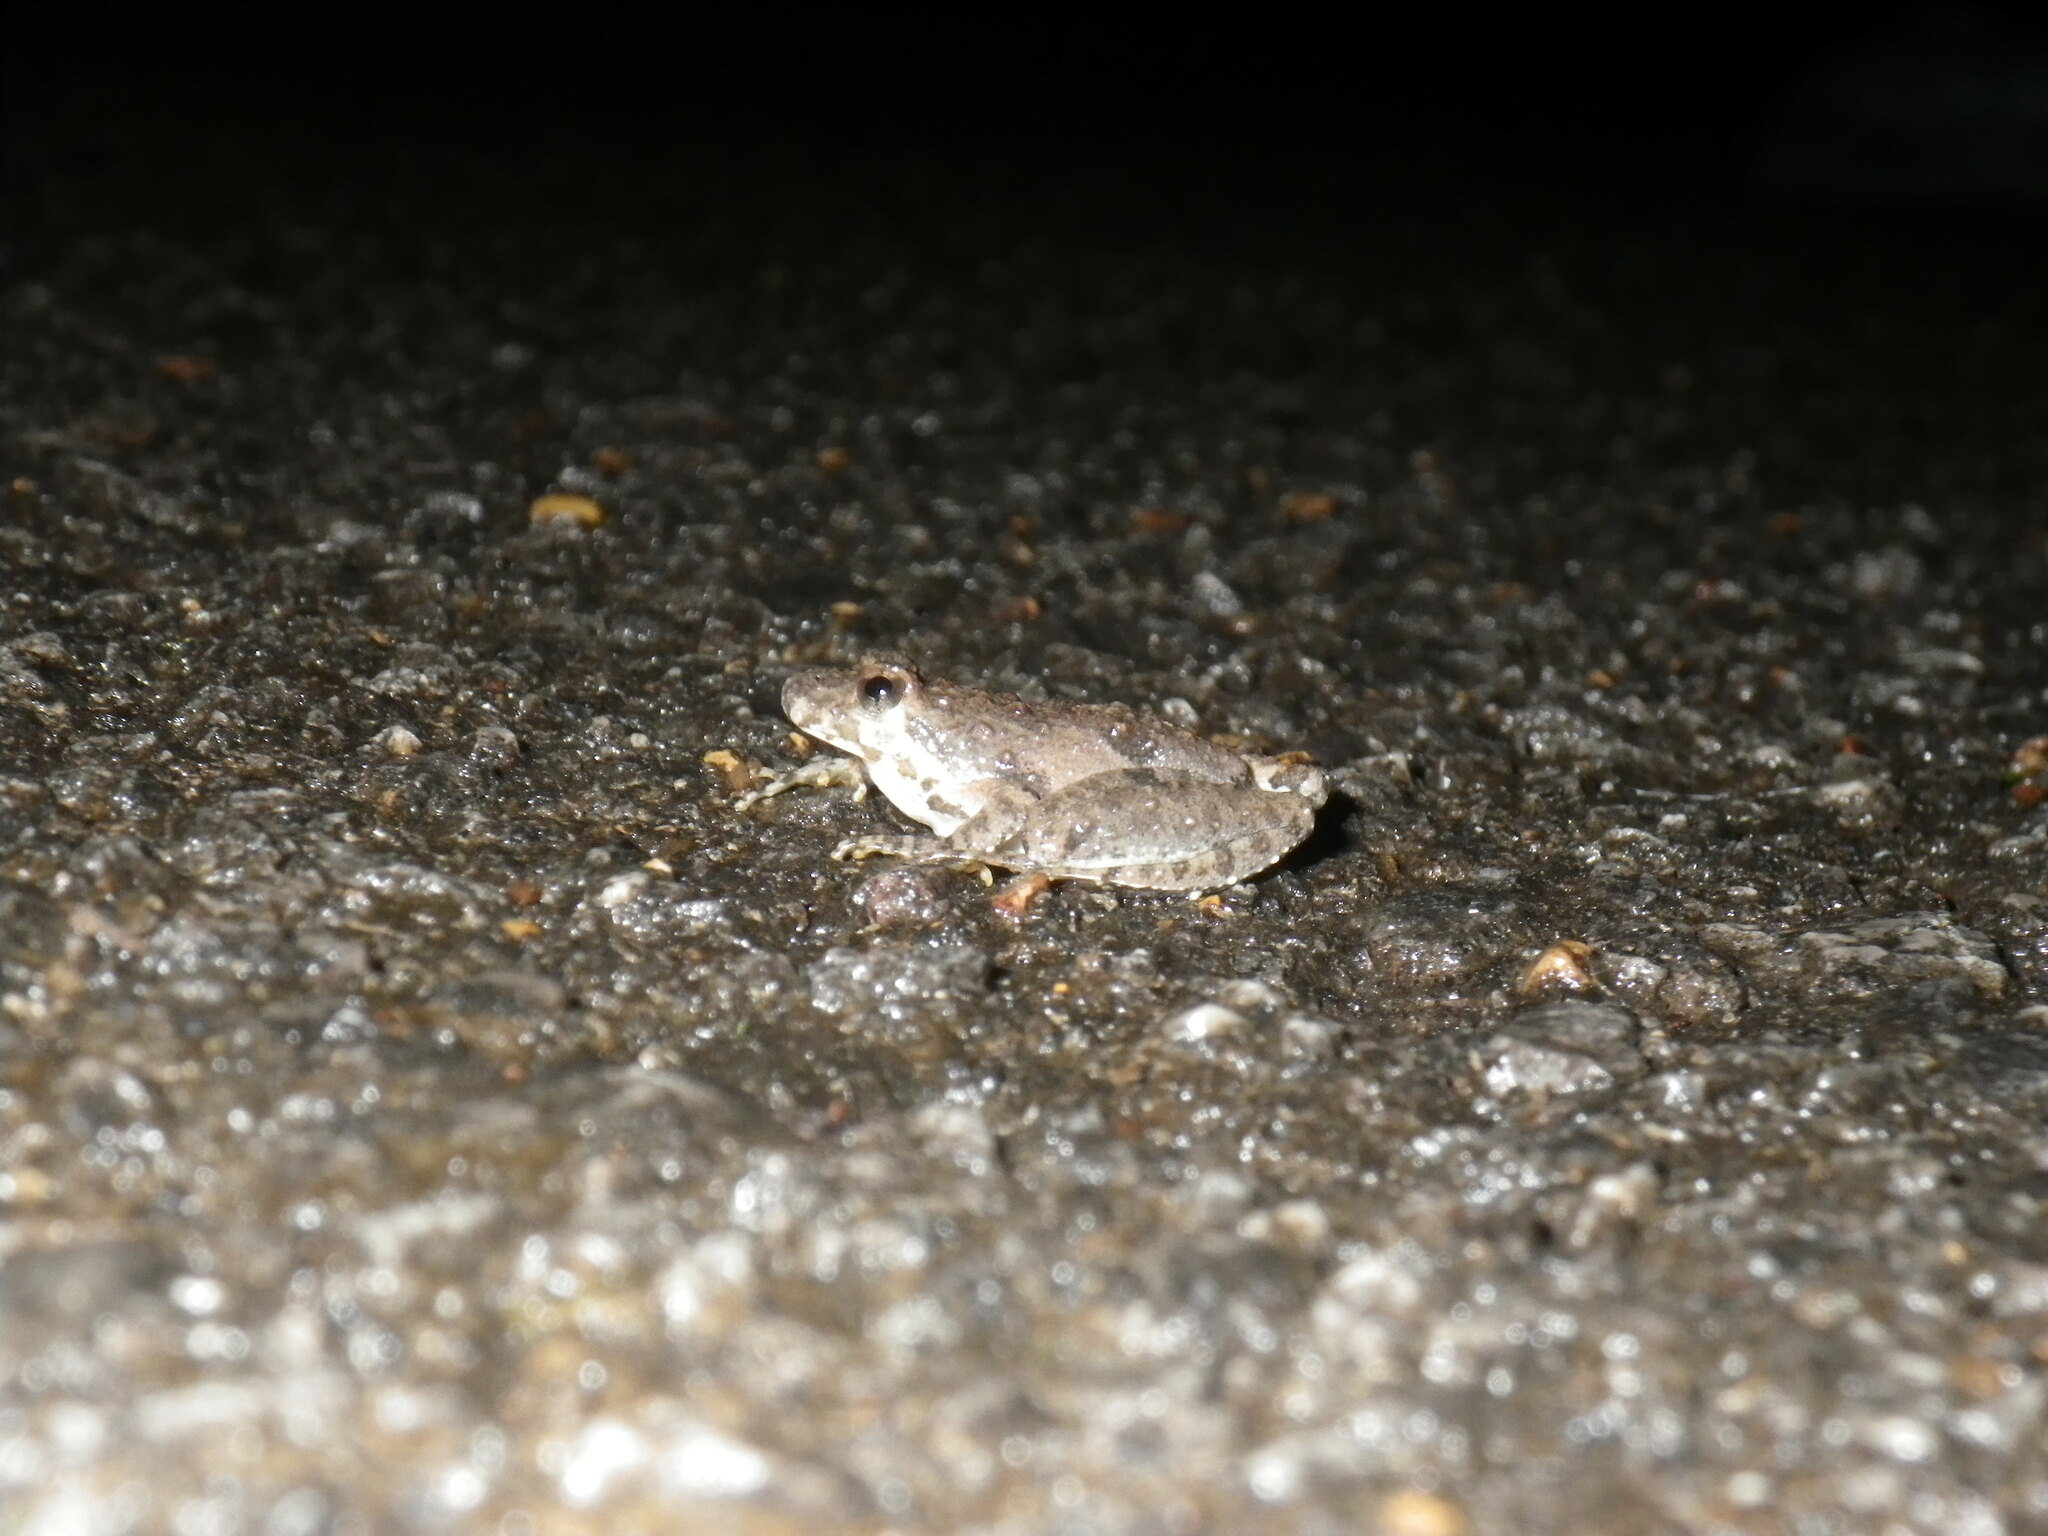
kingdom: Animalia
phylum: Chordata
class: Amphibia
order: Anura
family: Hylidae
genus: Acris
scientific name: Acris crepitans
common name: Northern cricket frog
